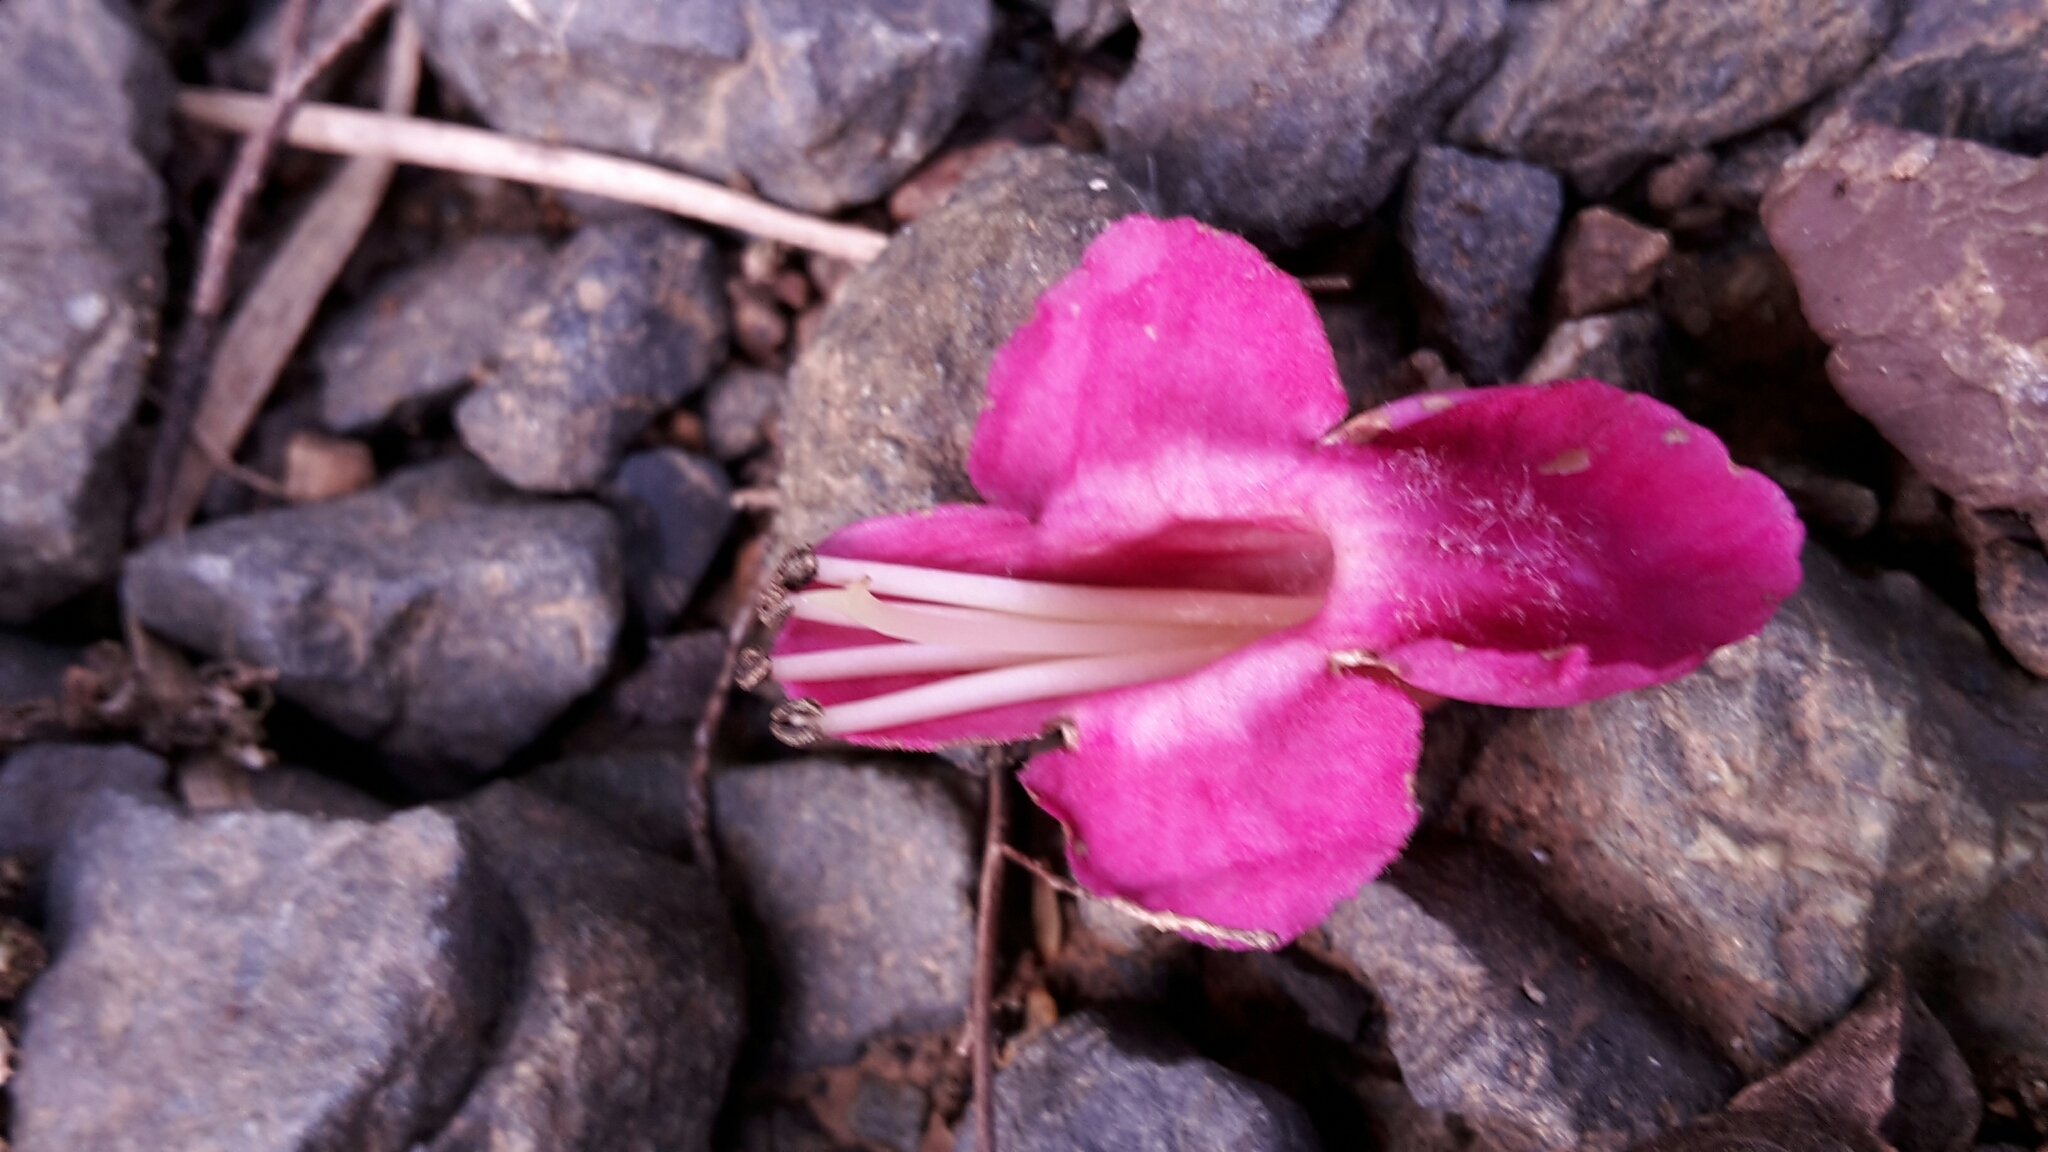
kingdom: Plantae
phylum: Tracheophyta
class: Magnoliopsida
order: Lamiales
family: Lamiaceae
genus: Vitex
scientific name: Vitex lucens
